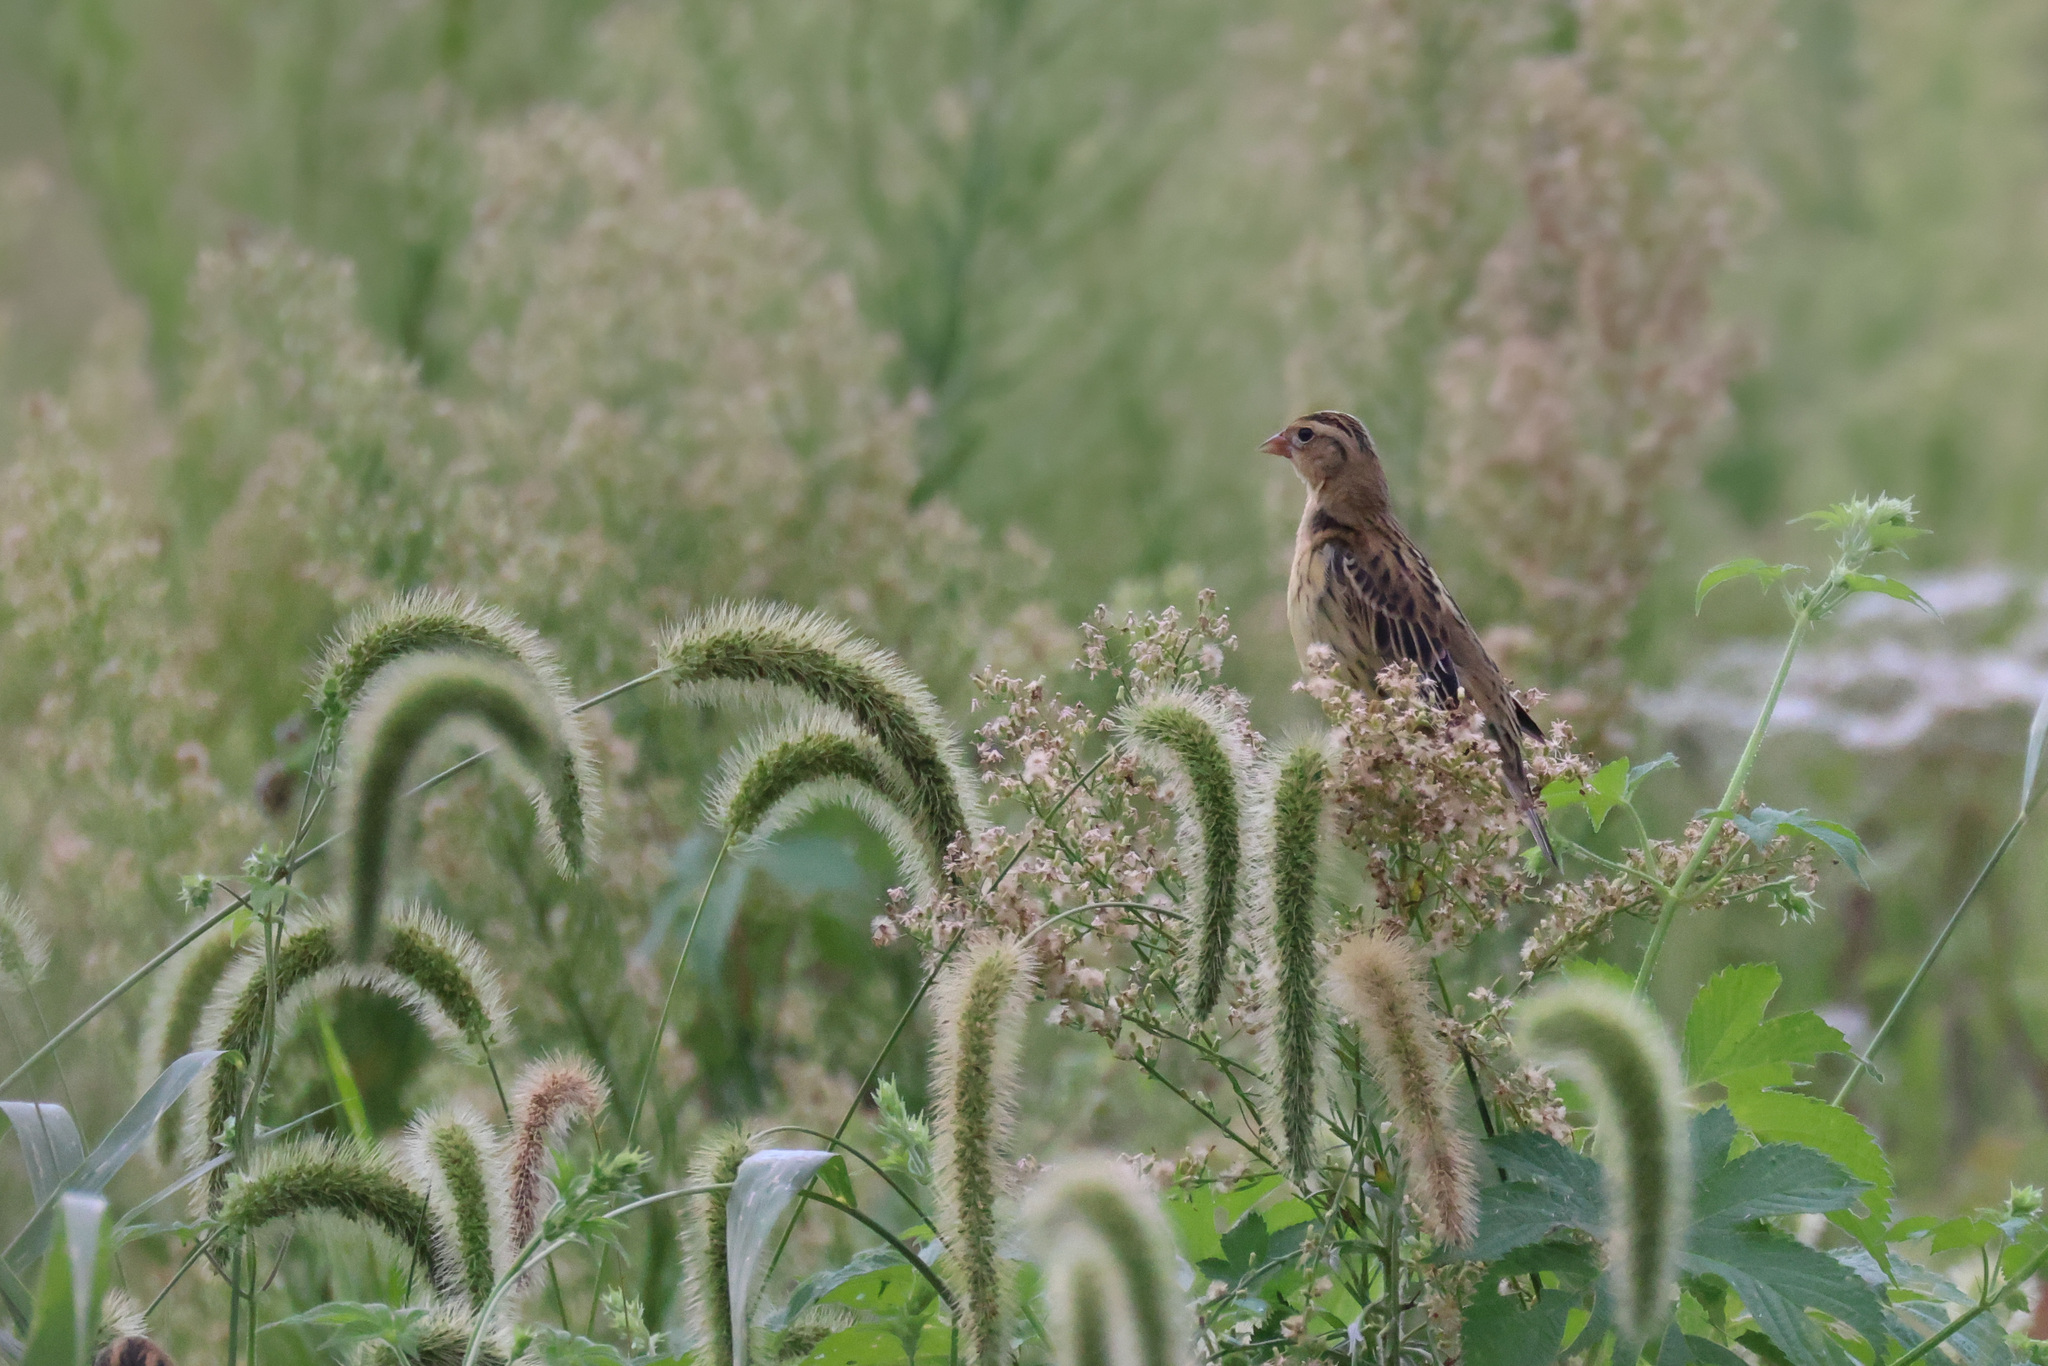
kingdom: Animalia
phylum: Chordata
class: Aves
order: Passeriformes
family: Icteridae
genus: Dolichonyx
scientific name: Dolichonyx oryzivorus
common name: Bobolink
